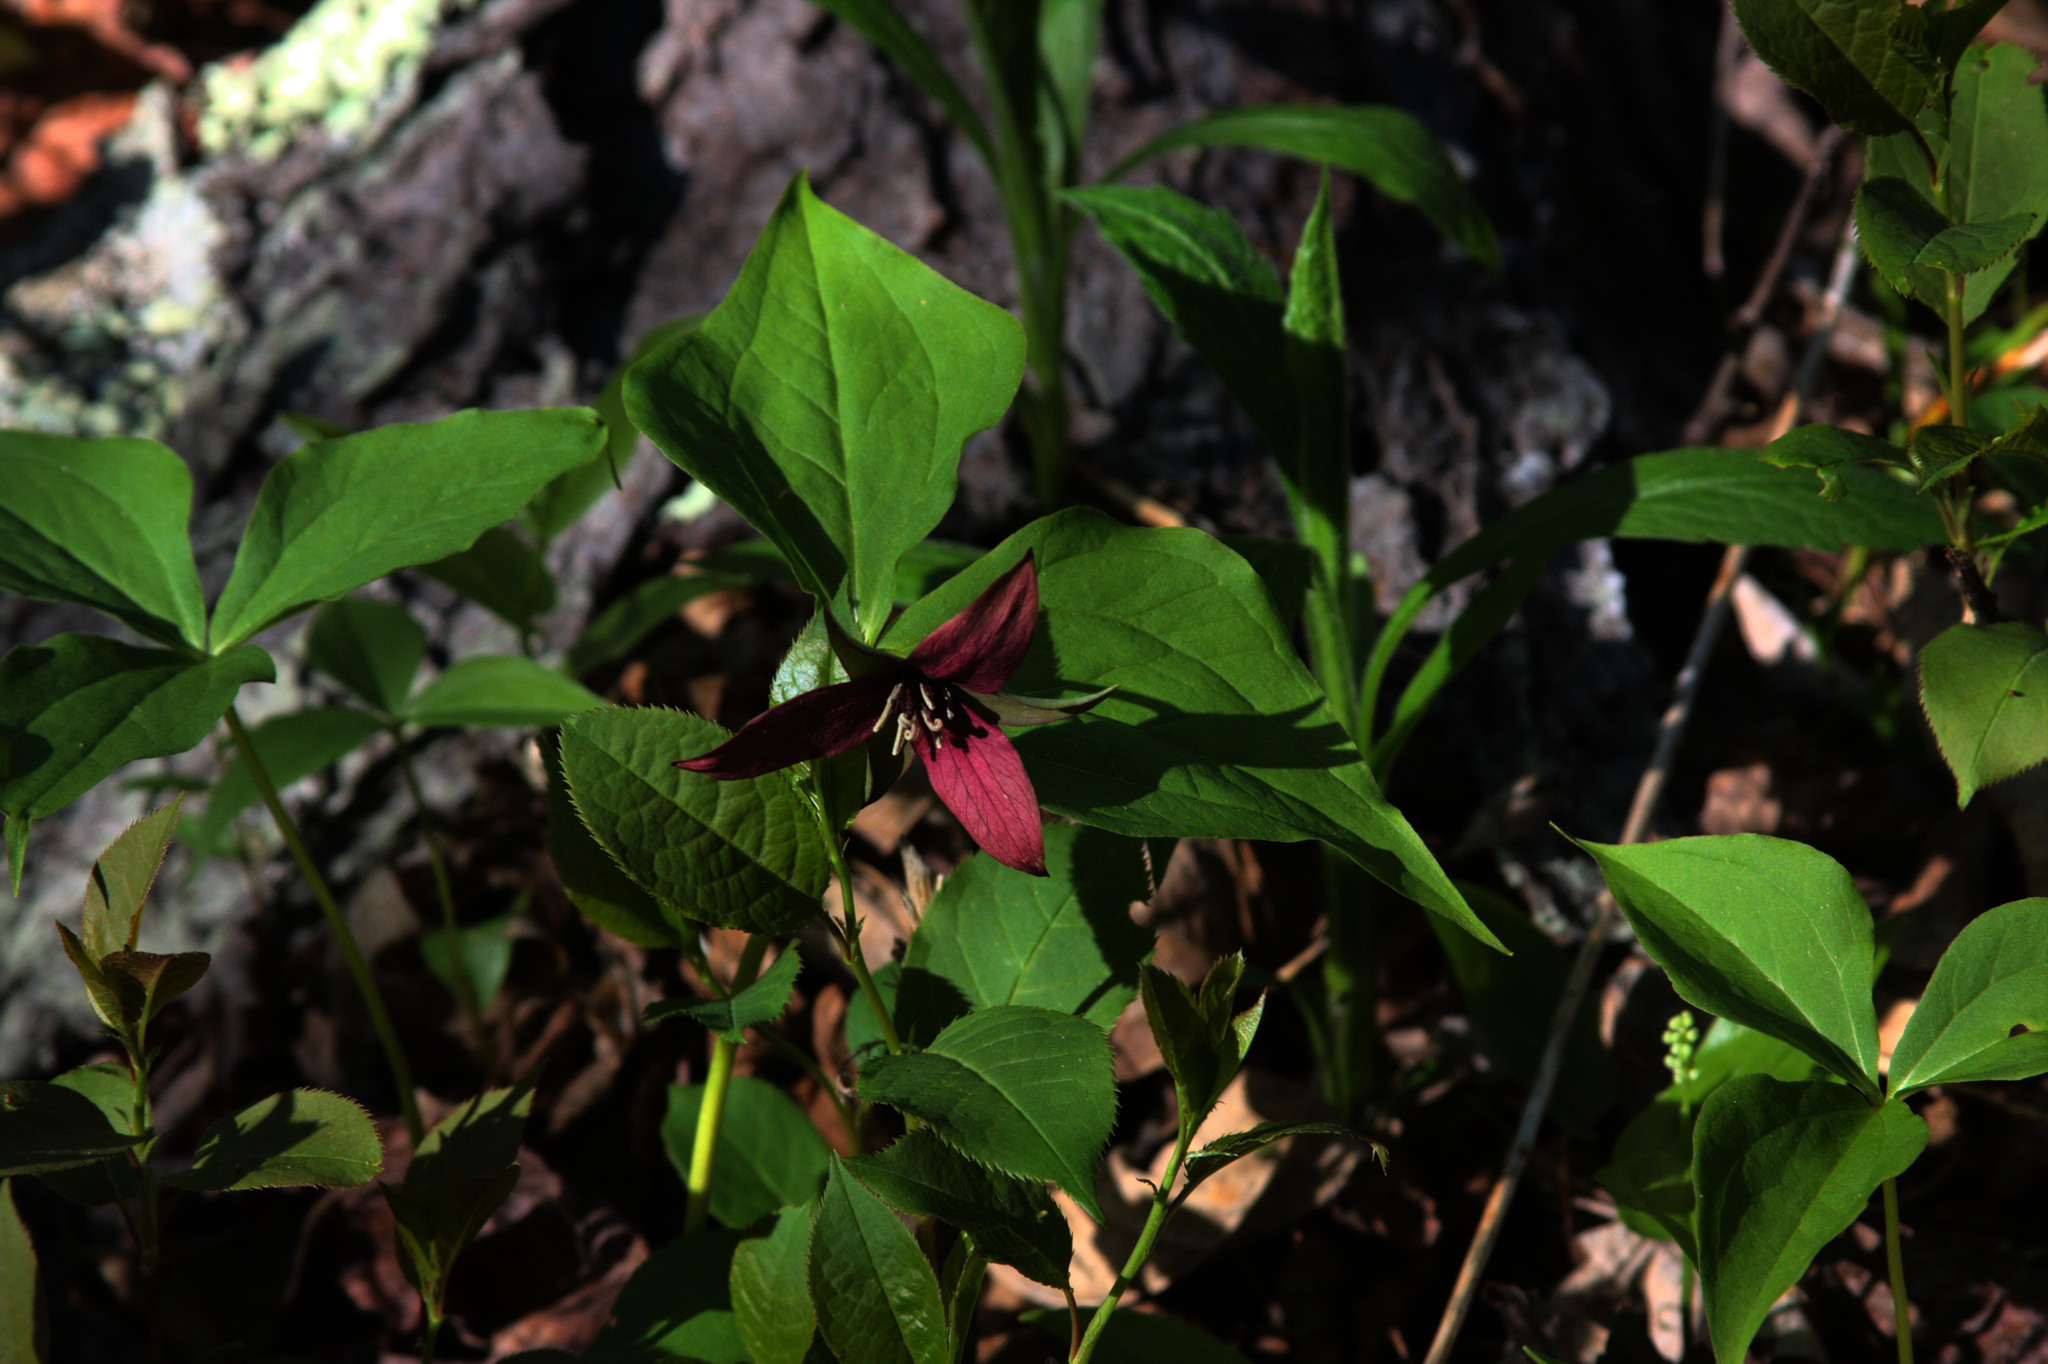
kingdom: Plantae
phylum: Tracheophyta
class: Liliopsida
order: Liliales
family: Melanthiaceae
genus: Trillium
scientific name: Trillium erectum
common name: Purple trillium
